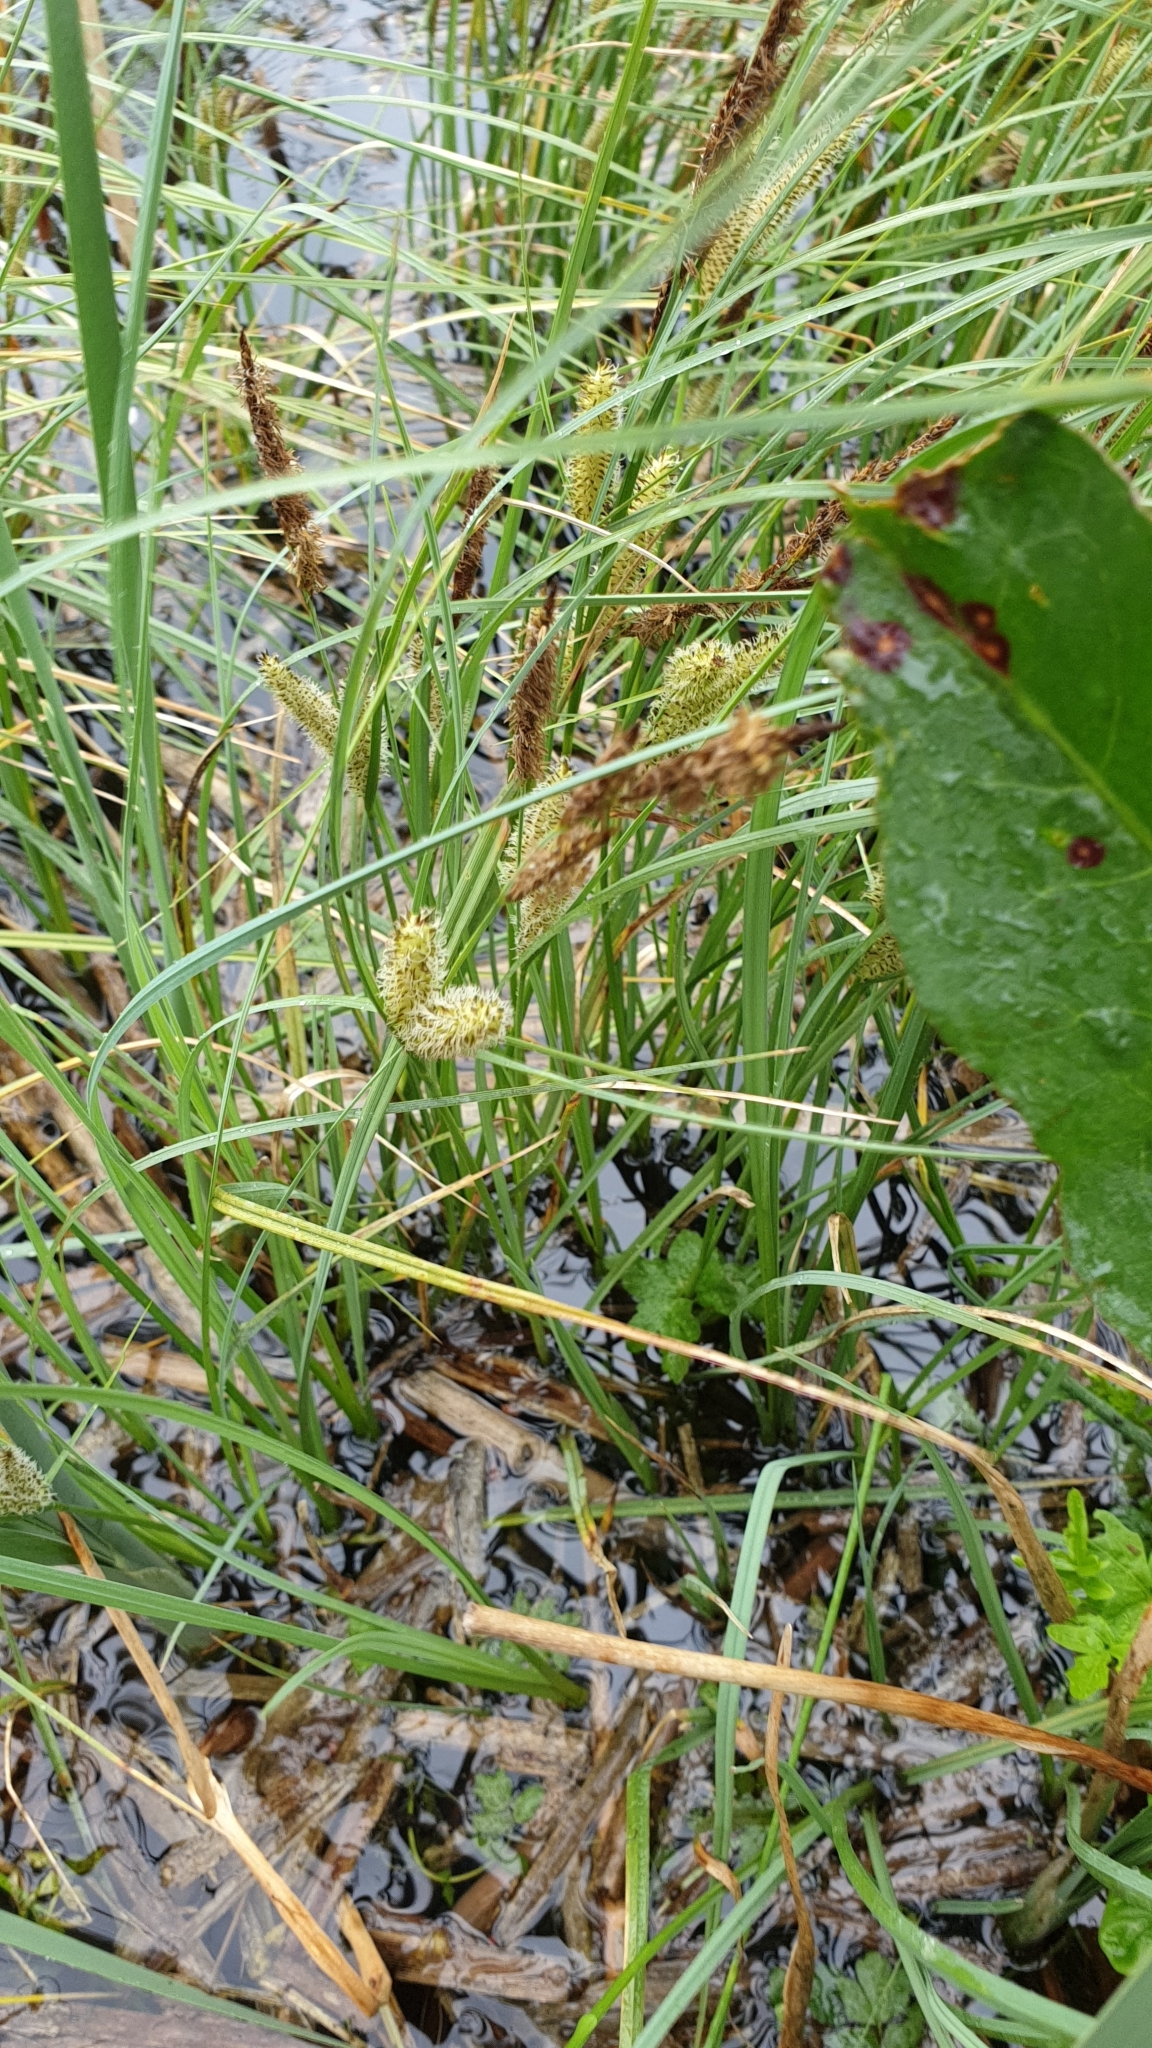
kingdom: Plantae
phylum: Tracheophyta
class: Liliopsida
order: Poales
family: Cyperaceae
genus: Carex
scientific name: Carex rostrata
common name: Bottle sedge
